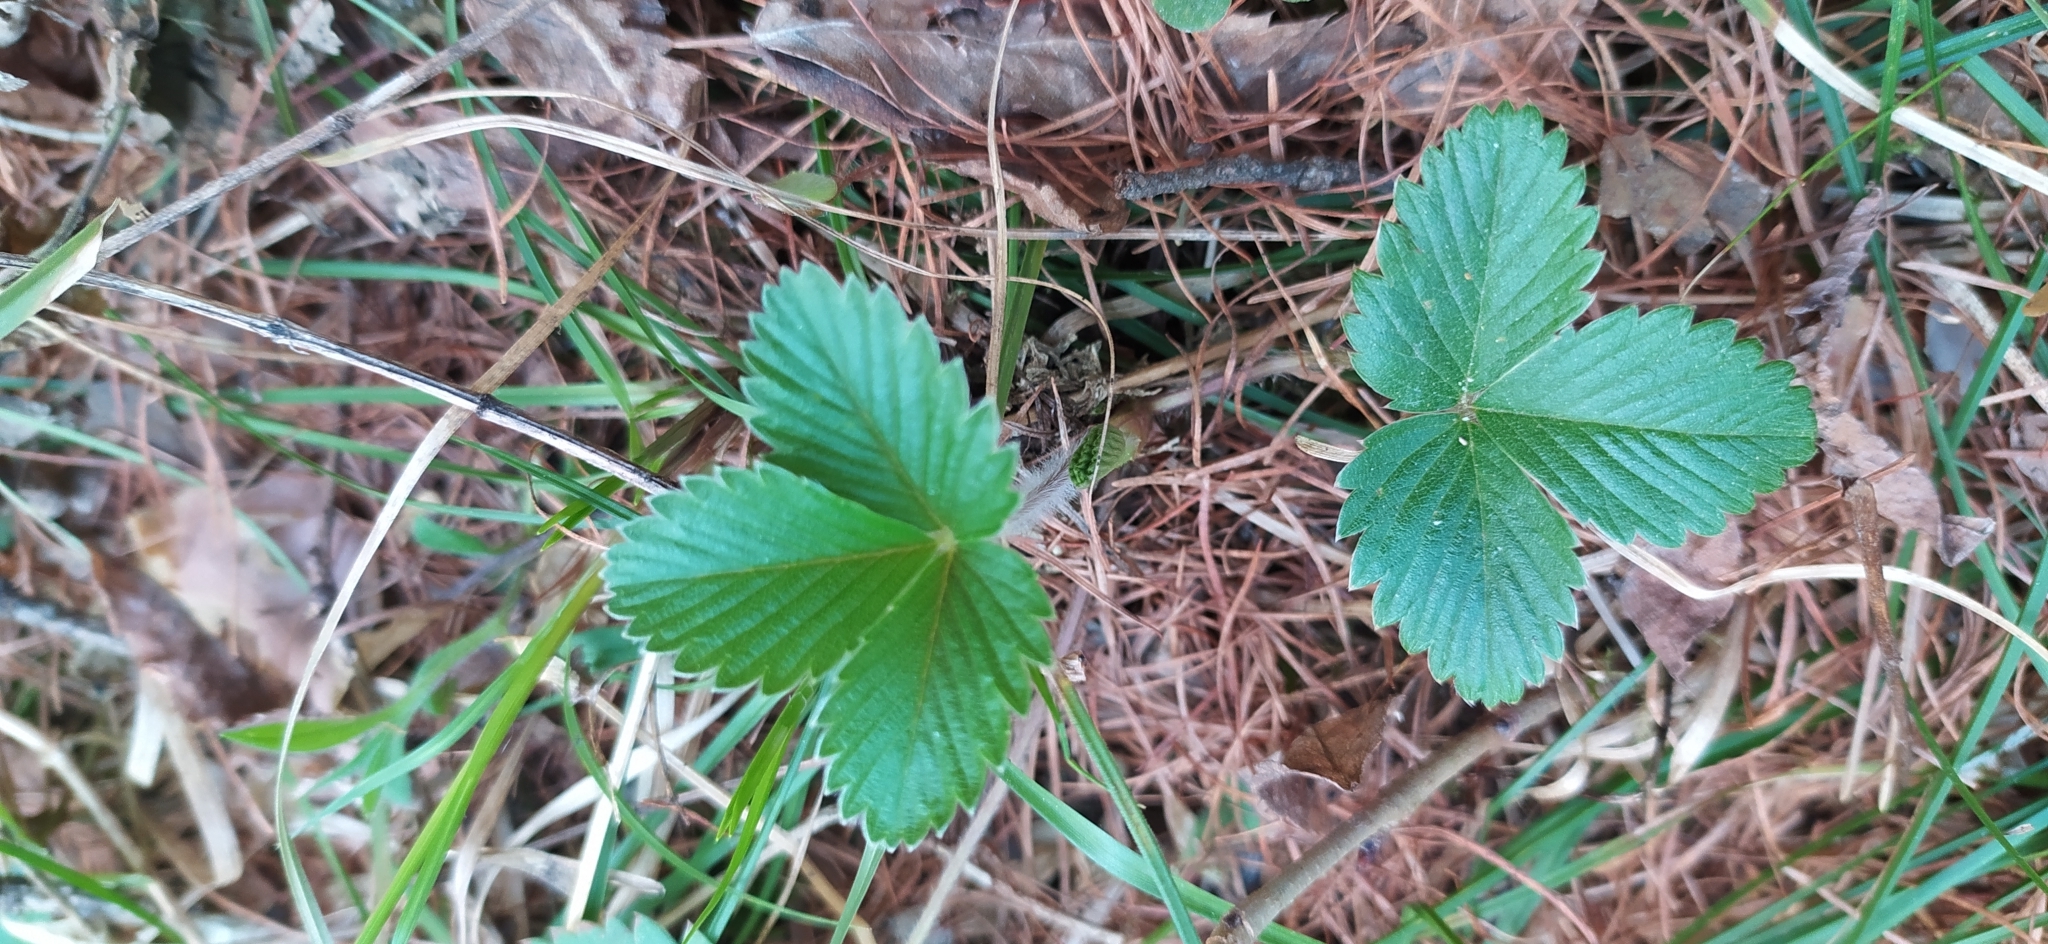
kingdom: Plantae
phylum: Tracheophyta
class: Magnoliopsida
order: Rosales
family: Rosaceae
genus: Fragaria
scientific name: Fragaria vesca
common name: Wild strawberry
